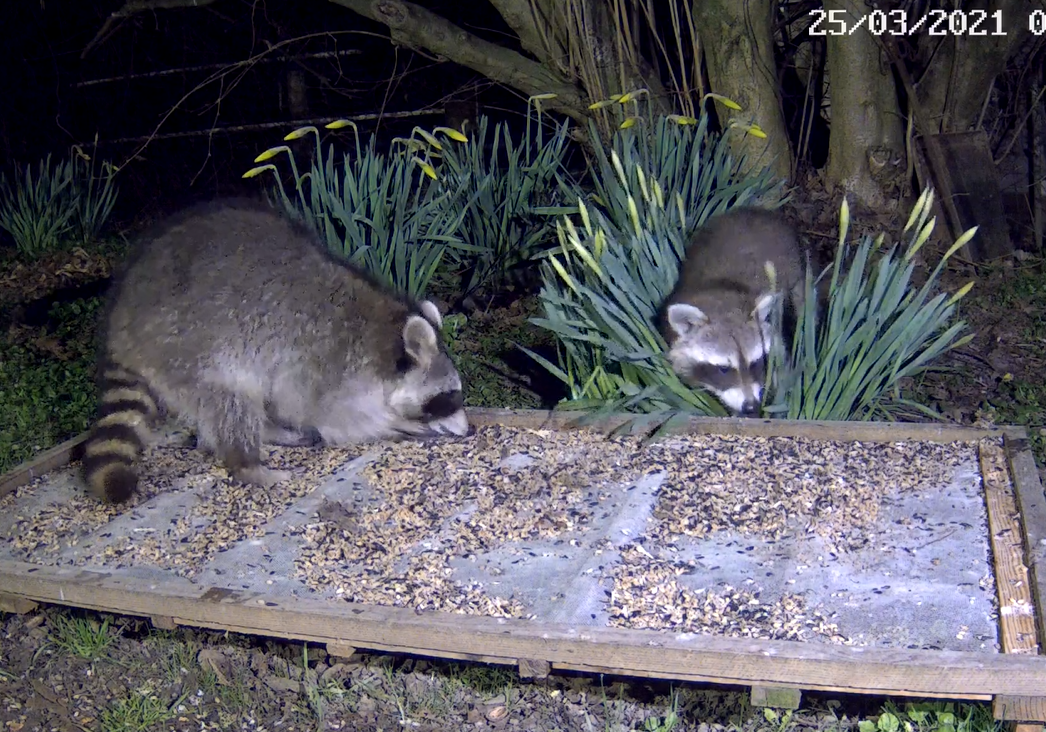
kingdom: Animalia
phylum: Chordata
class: Mammalia
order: Carnivora
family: Procyonidae
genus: Procyon
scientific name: Procyon lotor
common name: Raccoon
